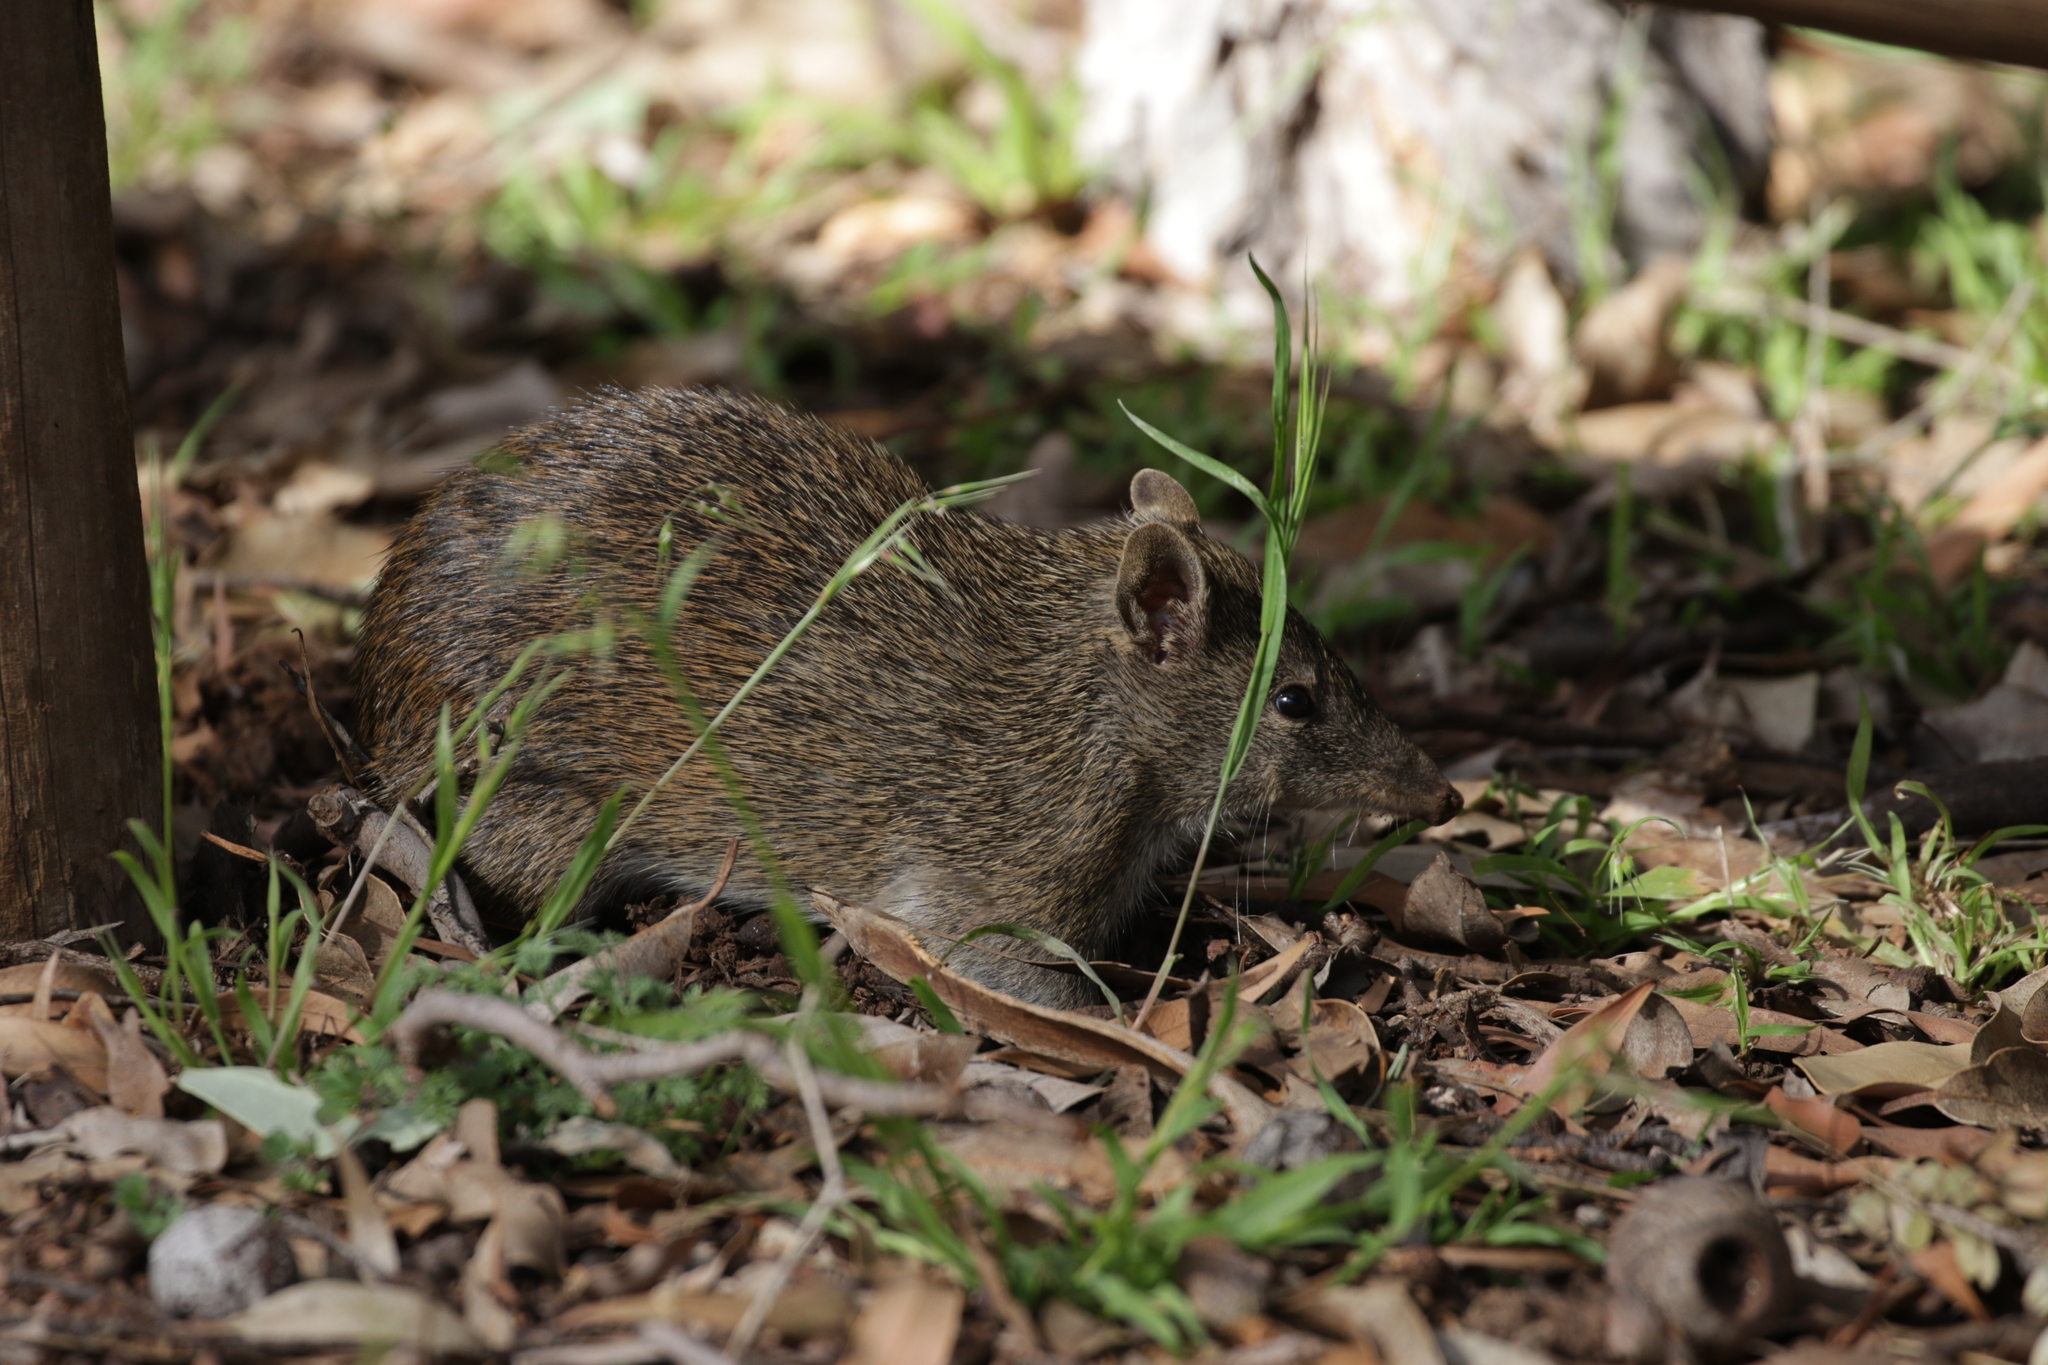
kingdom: Animalia
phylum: Chordata
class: Mammalia
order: Peramelemorphia
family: Peramelidae
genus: Isoodon
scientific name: Isoodon fusciventer
